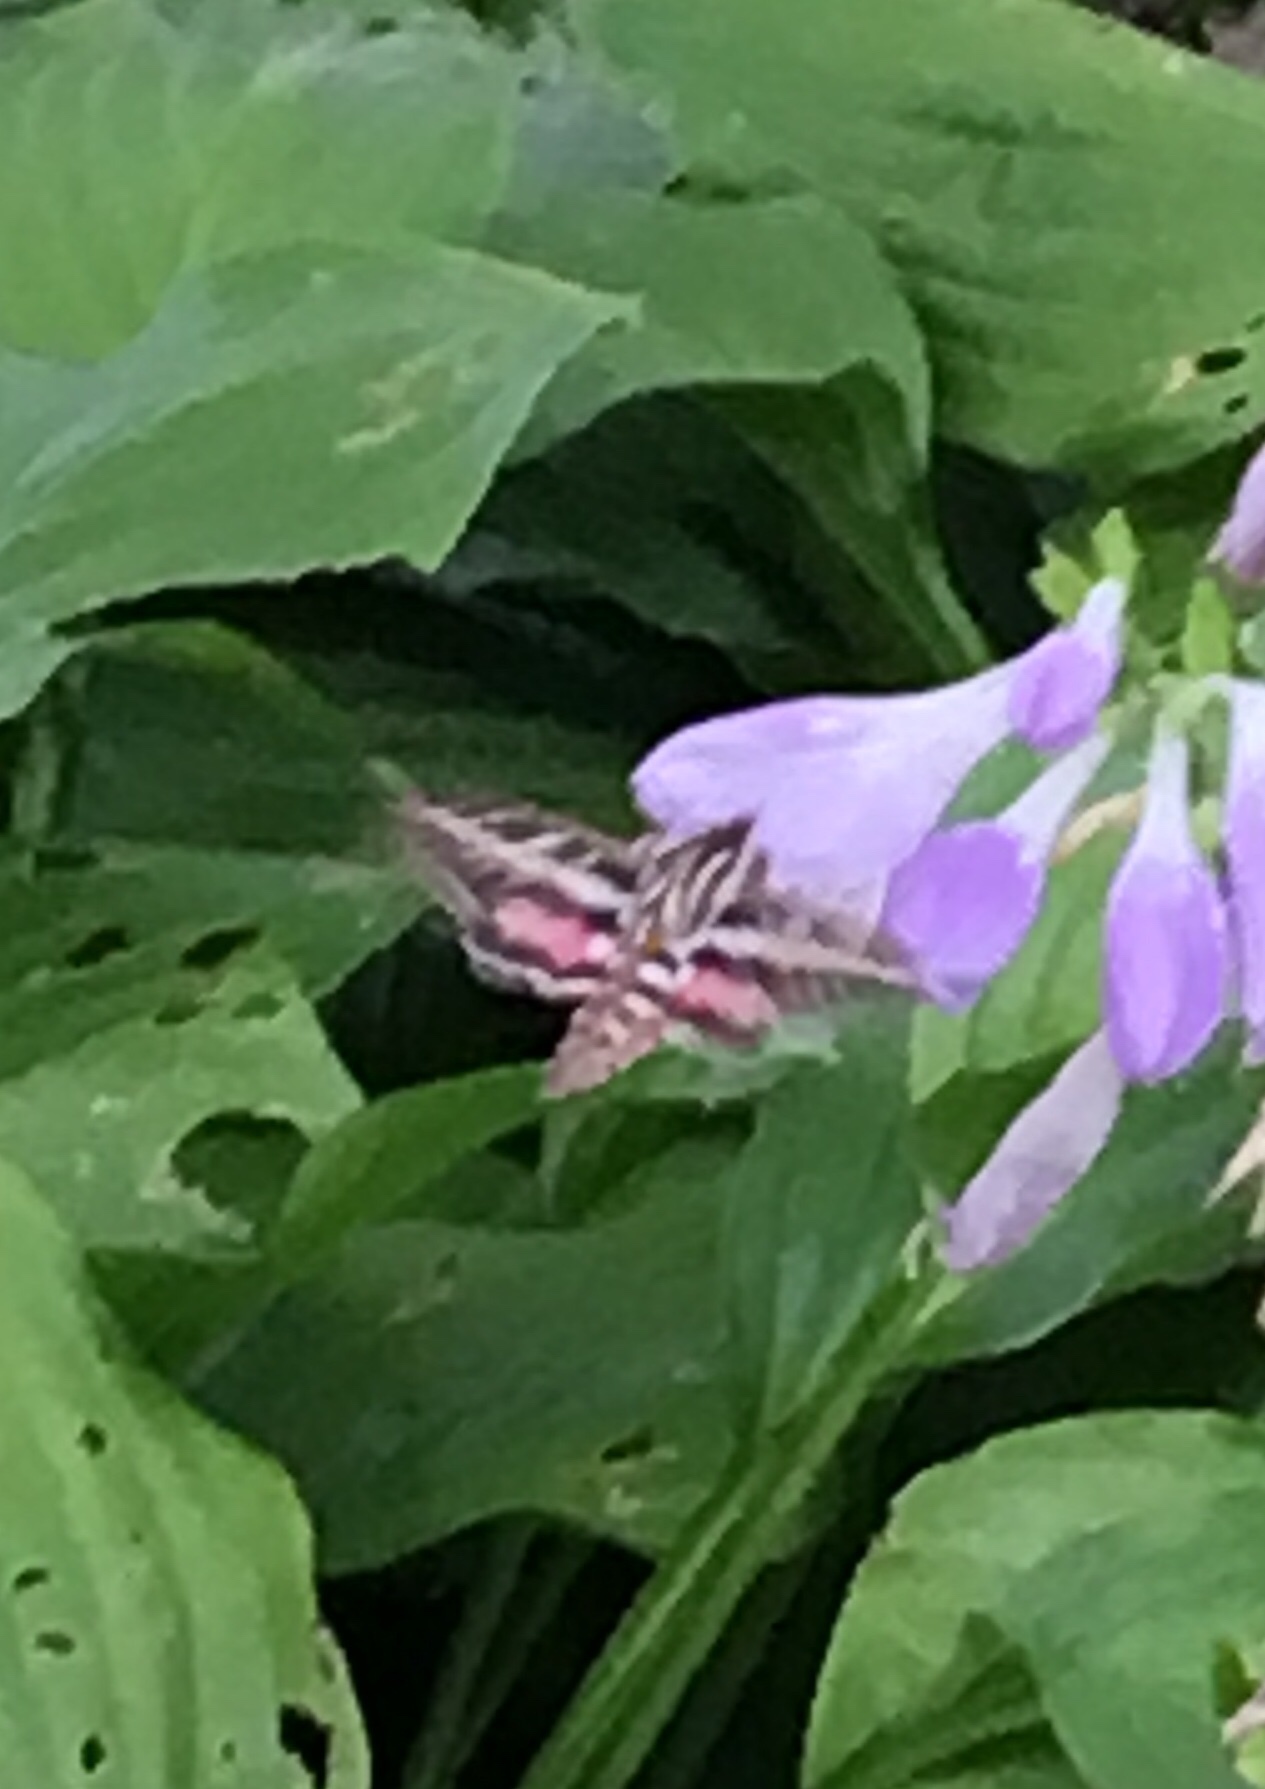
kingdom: Animalia
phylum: Arthropoda
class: Insecta
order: Lepidoptera
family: Sphingidae
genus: Hyles
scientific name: Hyles lineata
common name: White-lined sphinx
